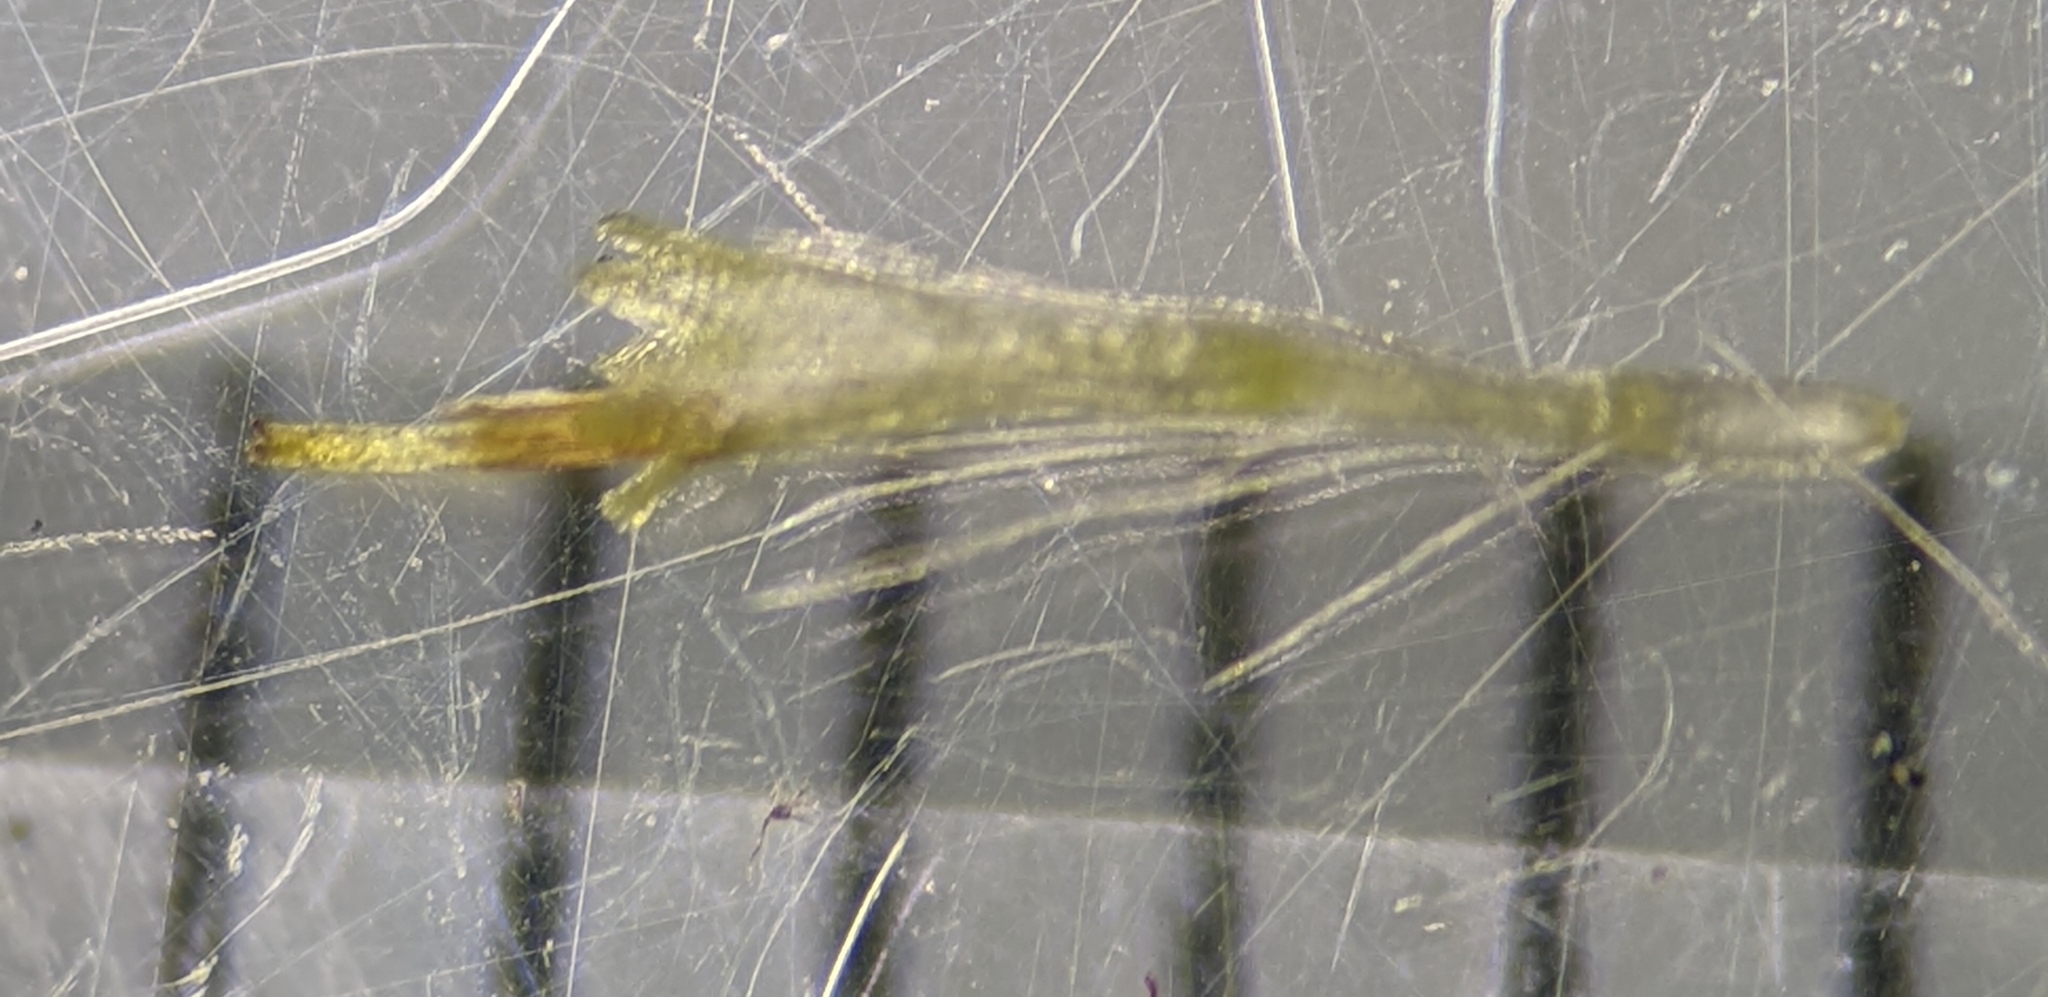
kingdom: Plantae
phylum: Tracheophyta
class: Magnoliopsida
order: Asterales
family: Asteraceae
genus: Erigeron
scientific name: Erigeron philadelphicus
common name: Robin's-plantain
